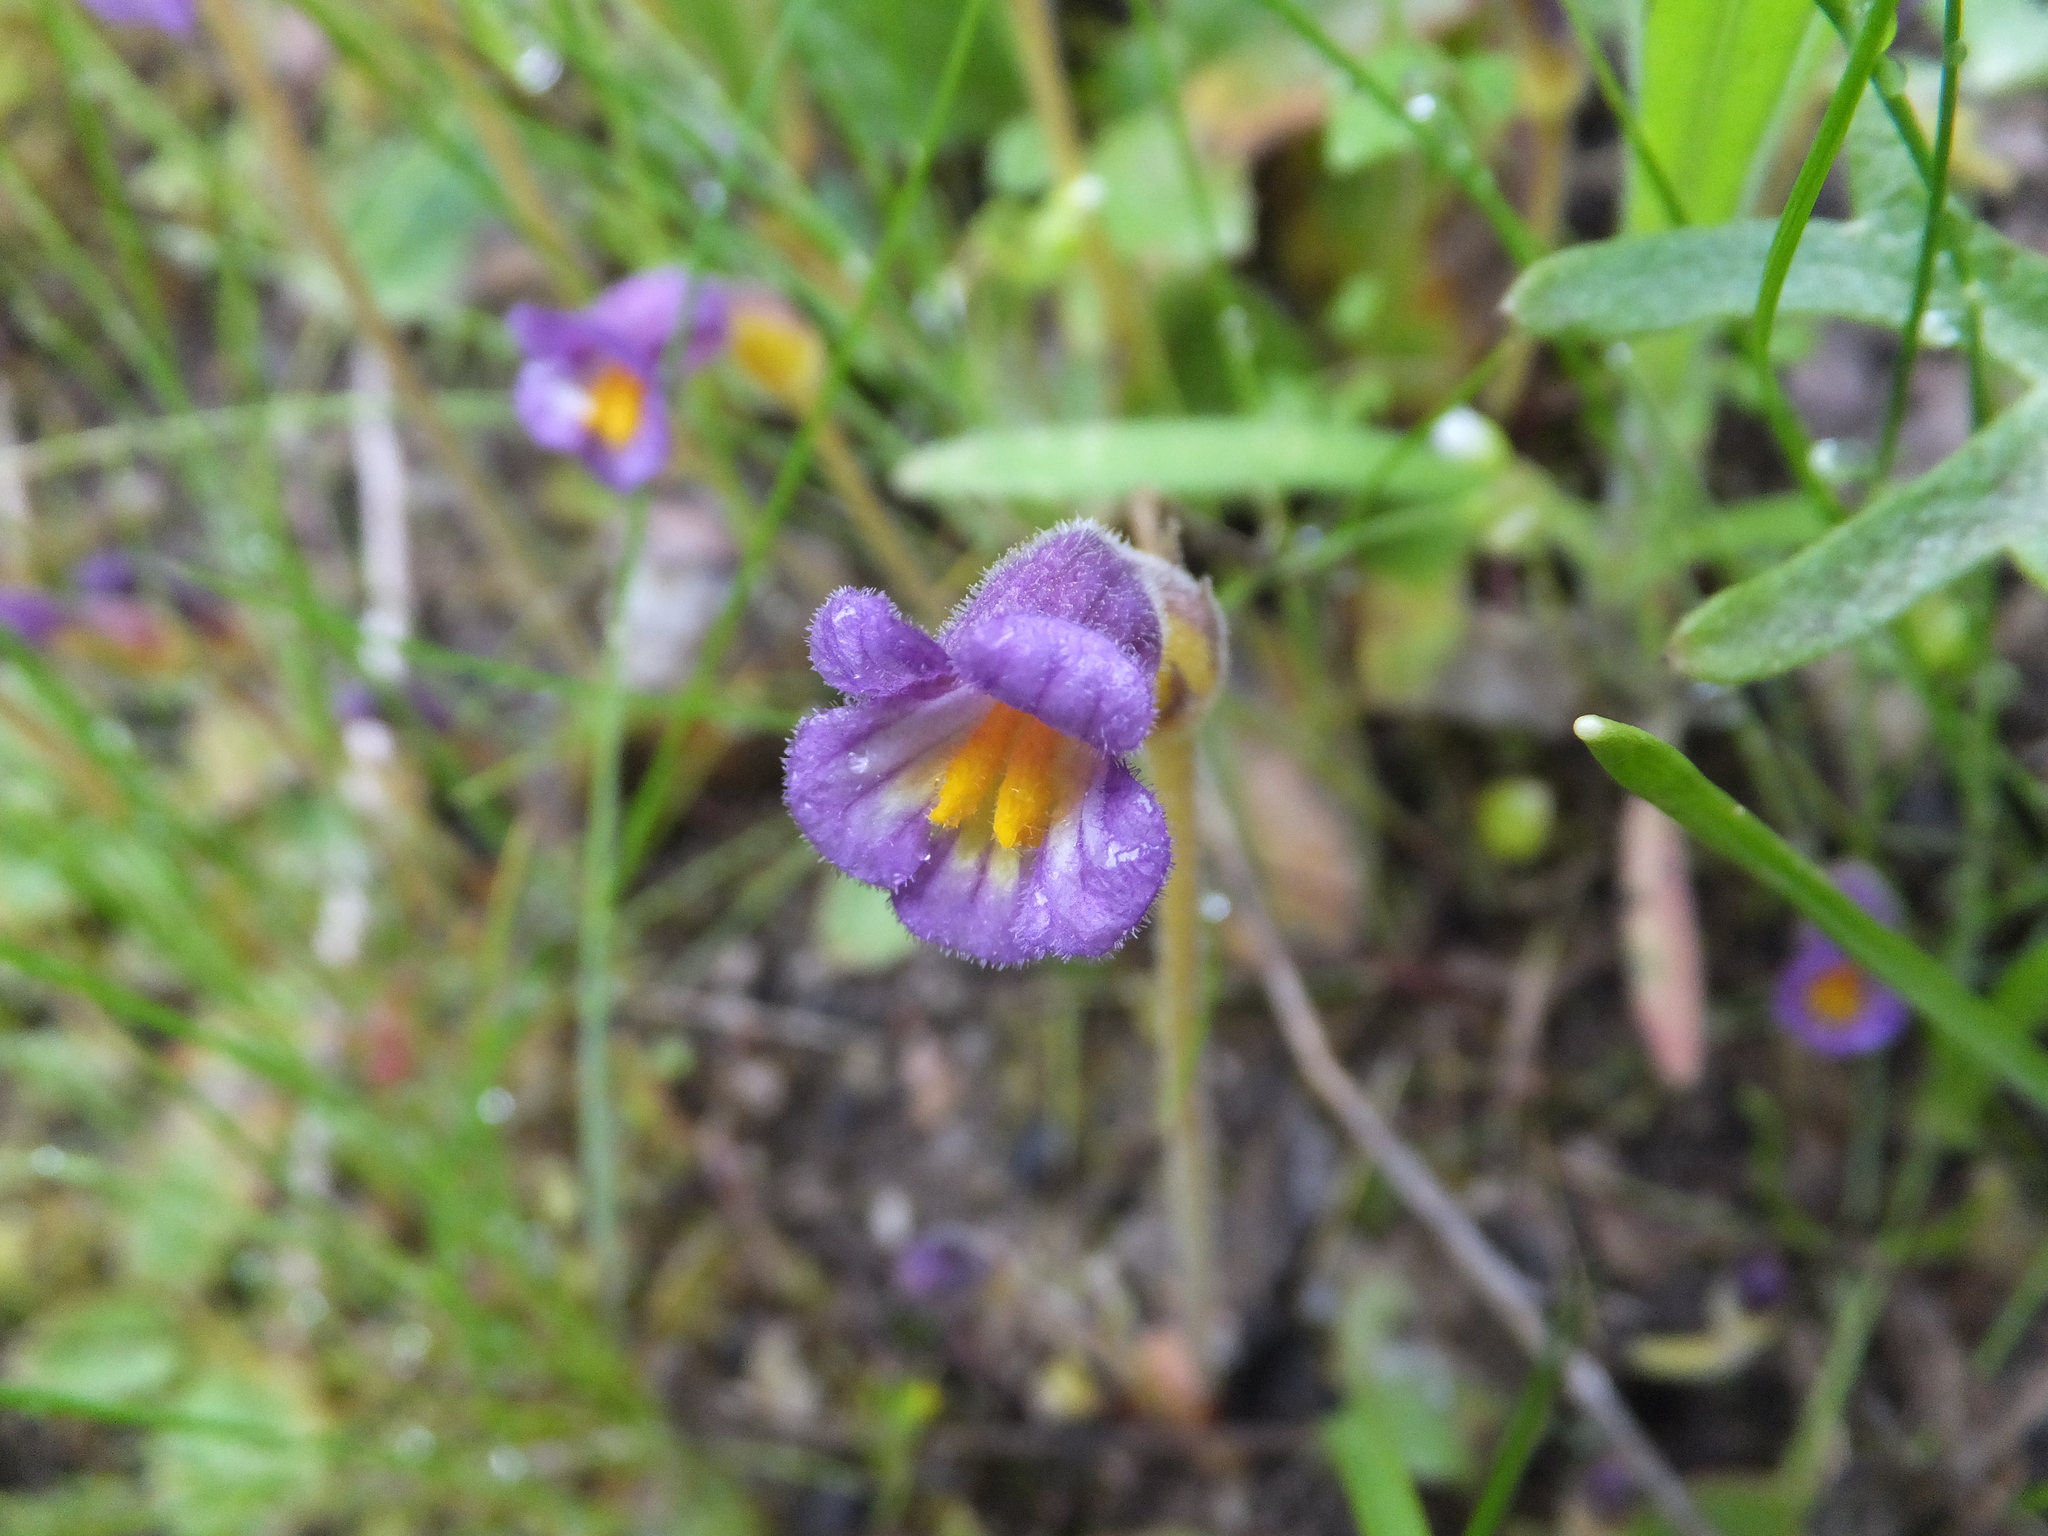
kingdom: Plantae
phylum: Tracheophyta
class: Magnoliopsida
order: Lamiales
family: Orobanchaceae
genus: Aphyllon
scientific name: Aphyllon uniflorum
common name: One-flowered broomrape
